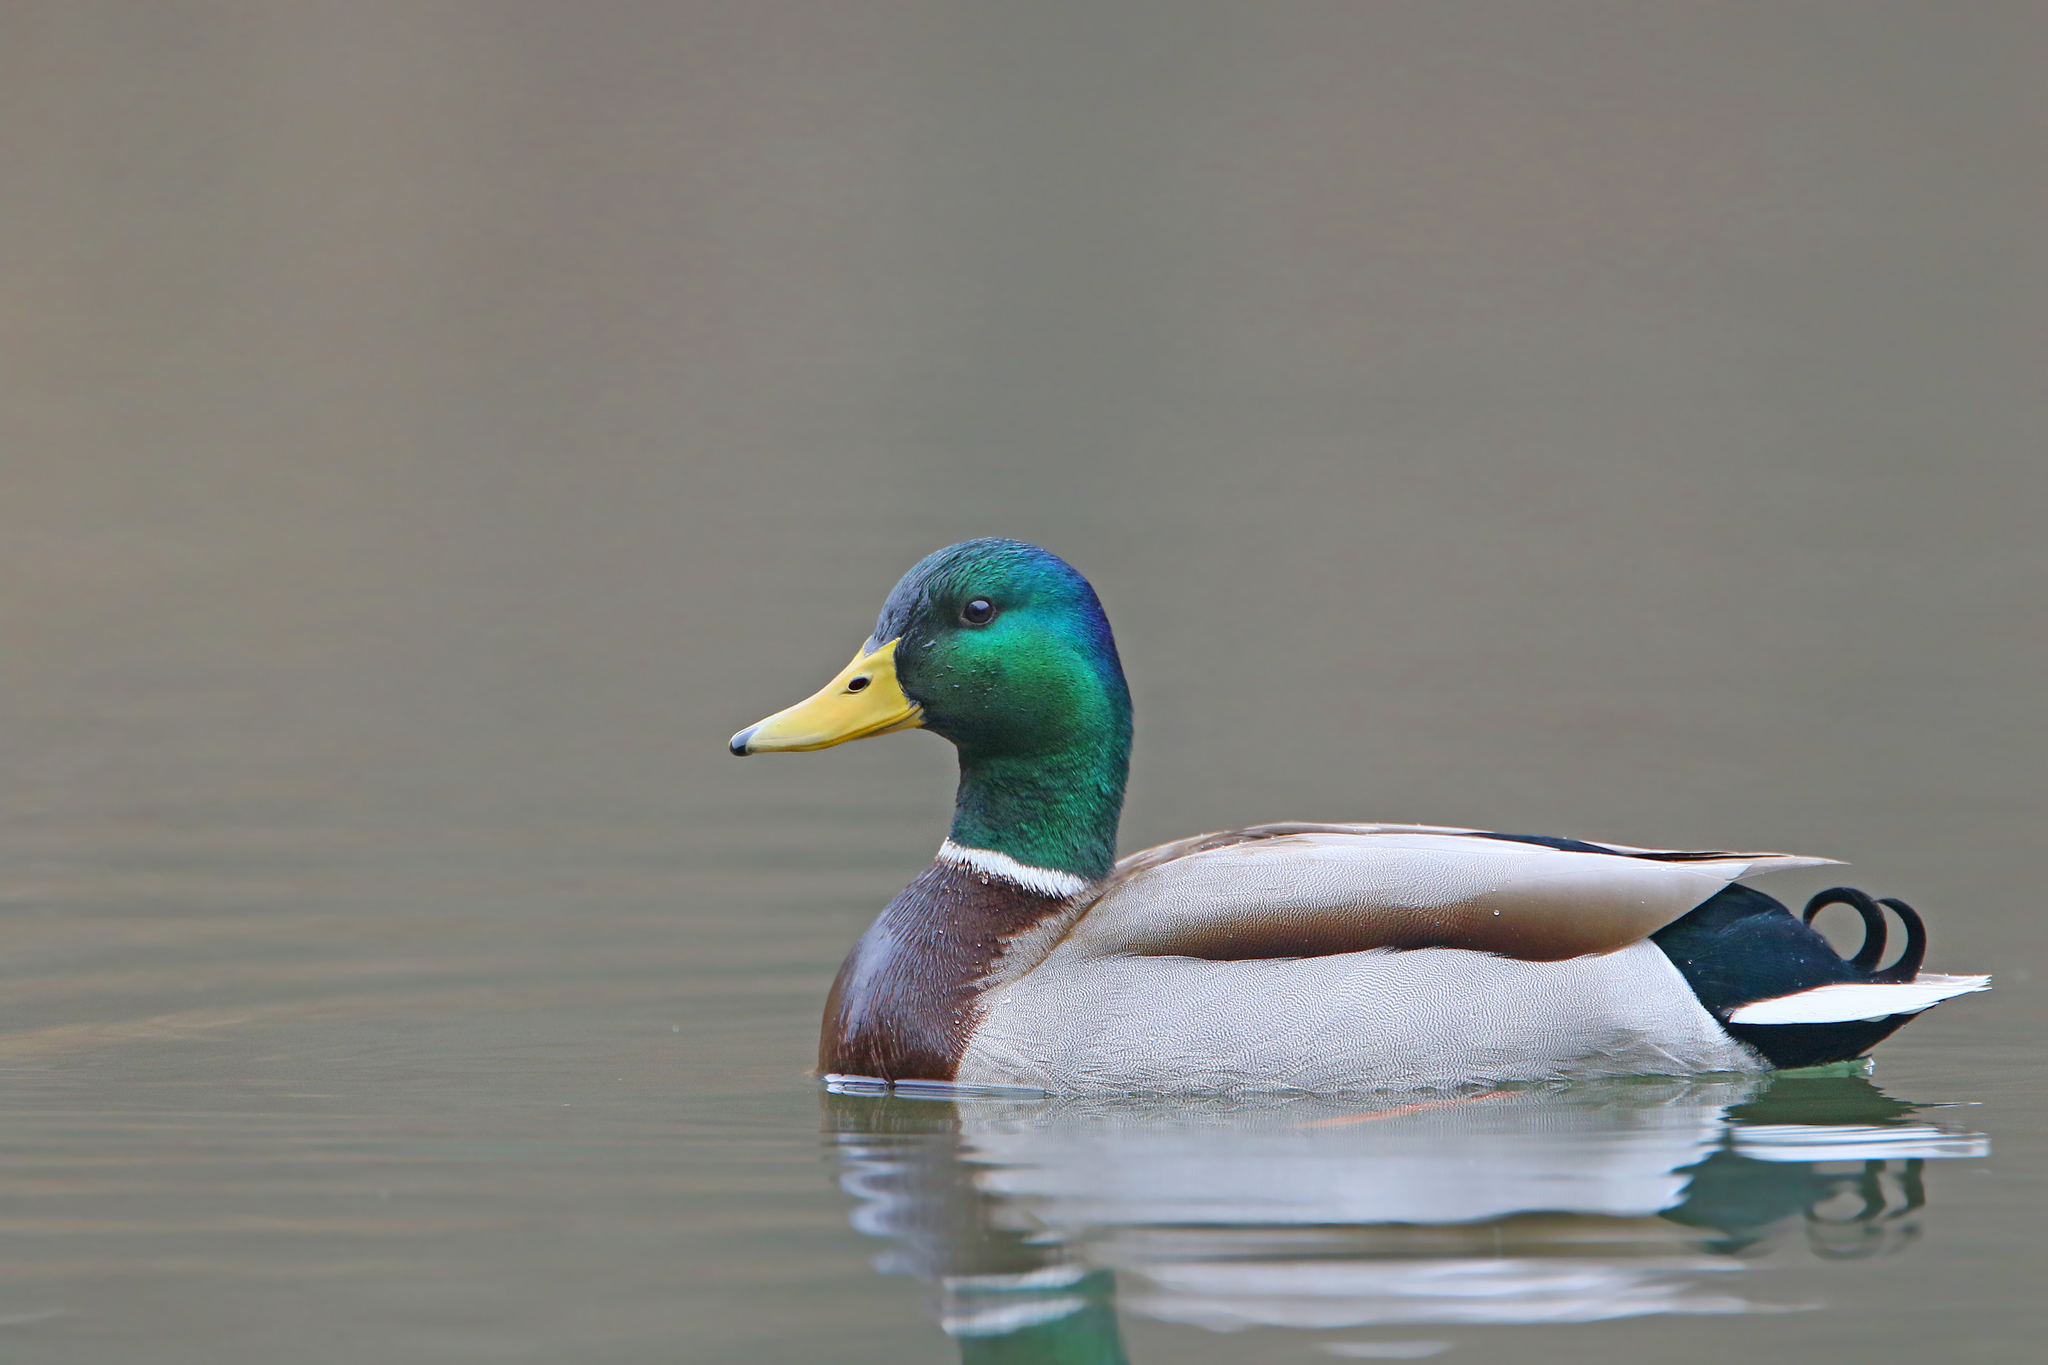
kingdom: Animalia
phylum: Chordata
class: Aves
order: Anseriformes
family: Anatidae
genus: Anas
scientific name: Anas platyrhynchos
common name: Mallard
